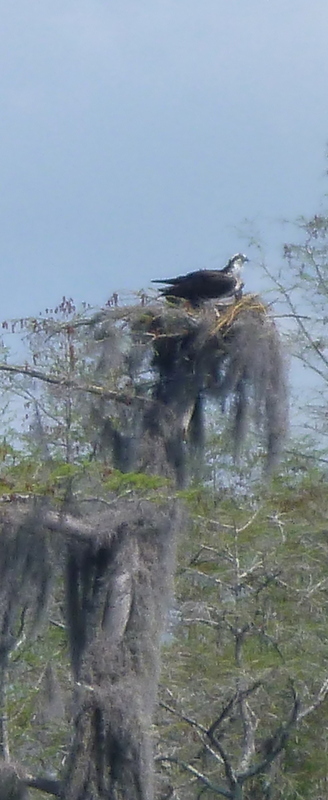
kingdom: Animalia
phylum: Chordata
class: Aves
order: Accipitriformes
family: Pandionidae
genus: Pandion
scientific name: Pandion haliaetus
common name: Osprey
